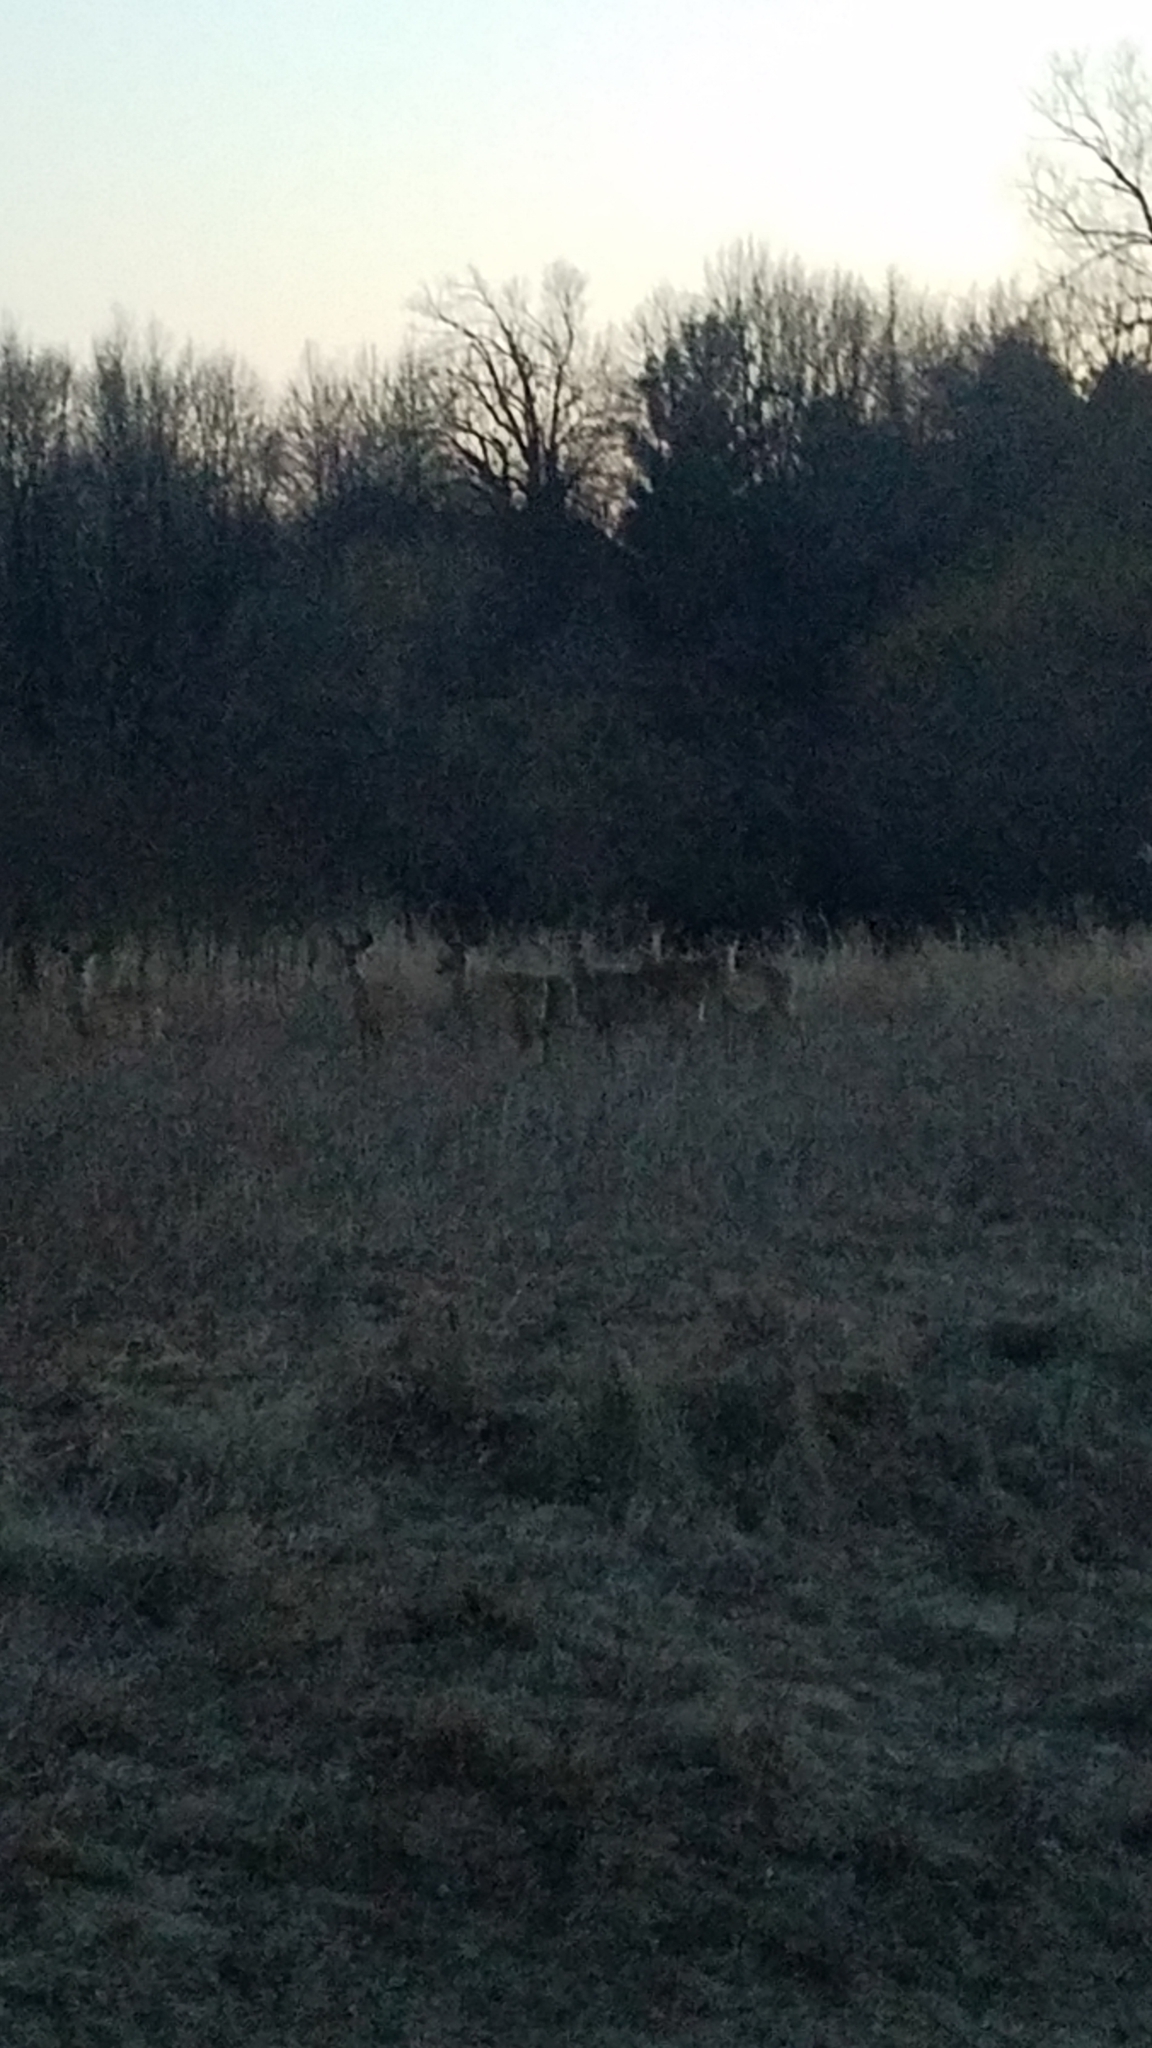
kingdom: Animalia
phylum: Chordata
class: Mammalia
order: Artiodactyla
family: Cervidae
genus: Odocoileus
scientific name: Odocoileus virginianus
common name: White-tailed deer
